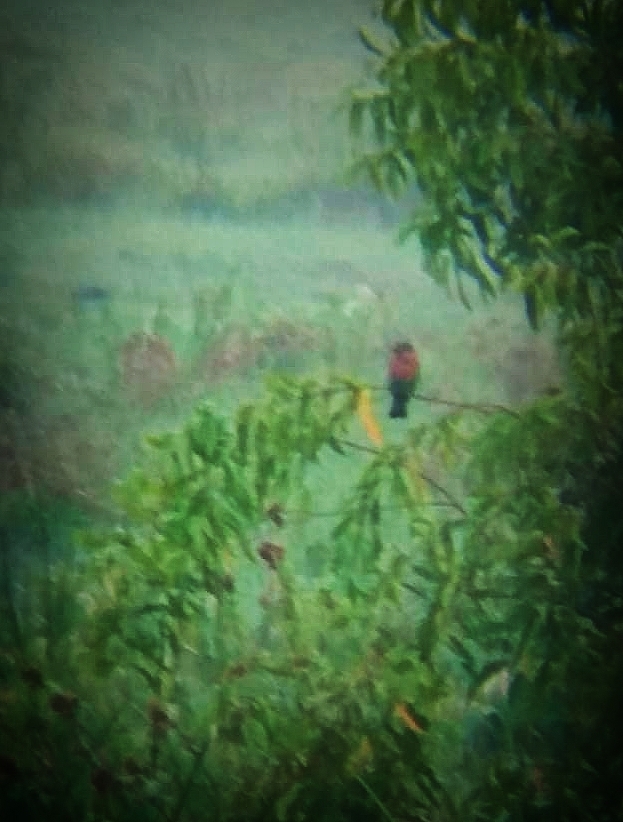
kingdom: Animalia
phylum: Chordata
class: Aves
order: Coraciiformes
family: Coraciidae
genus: Coracias
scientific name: Coracias benghalensis
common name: Indian roller
